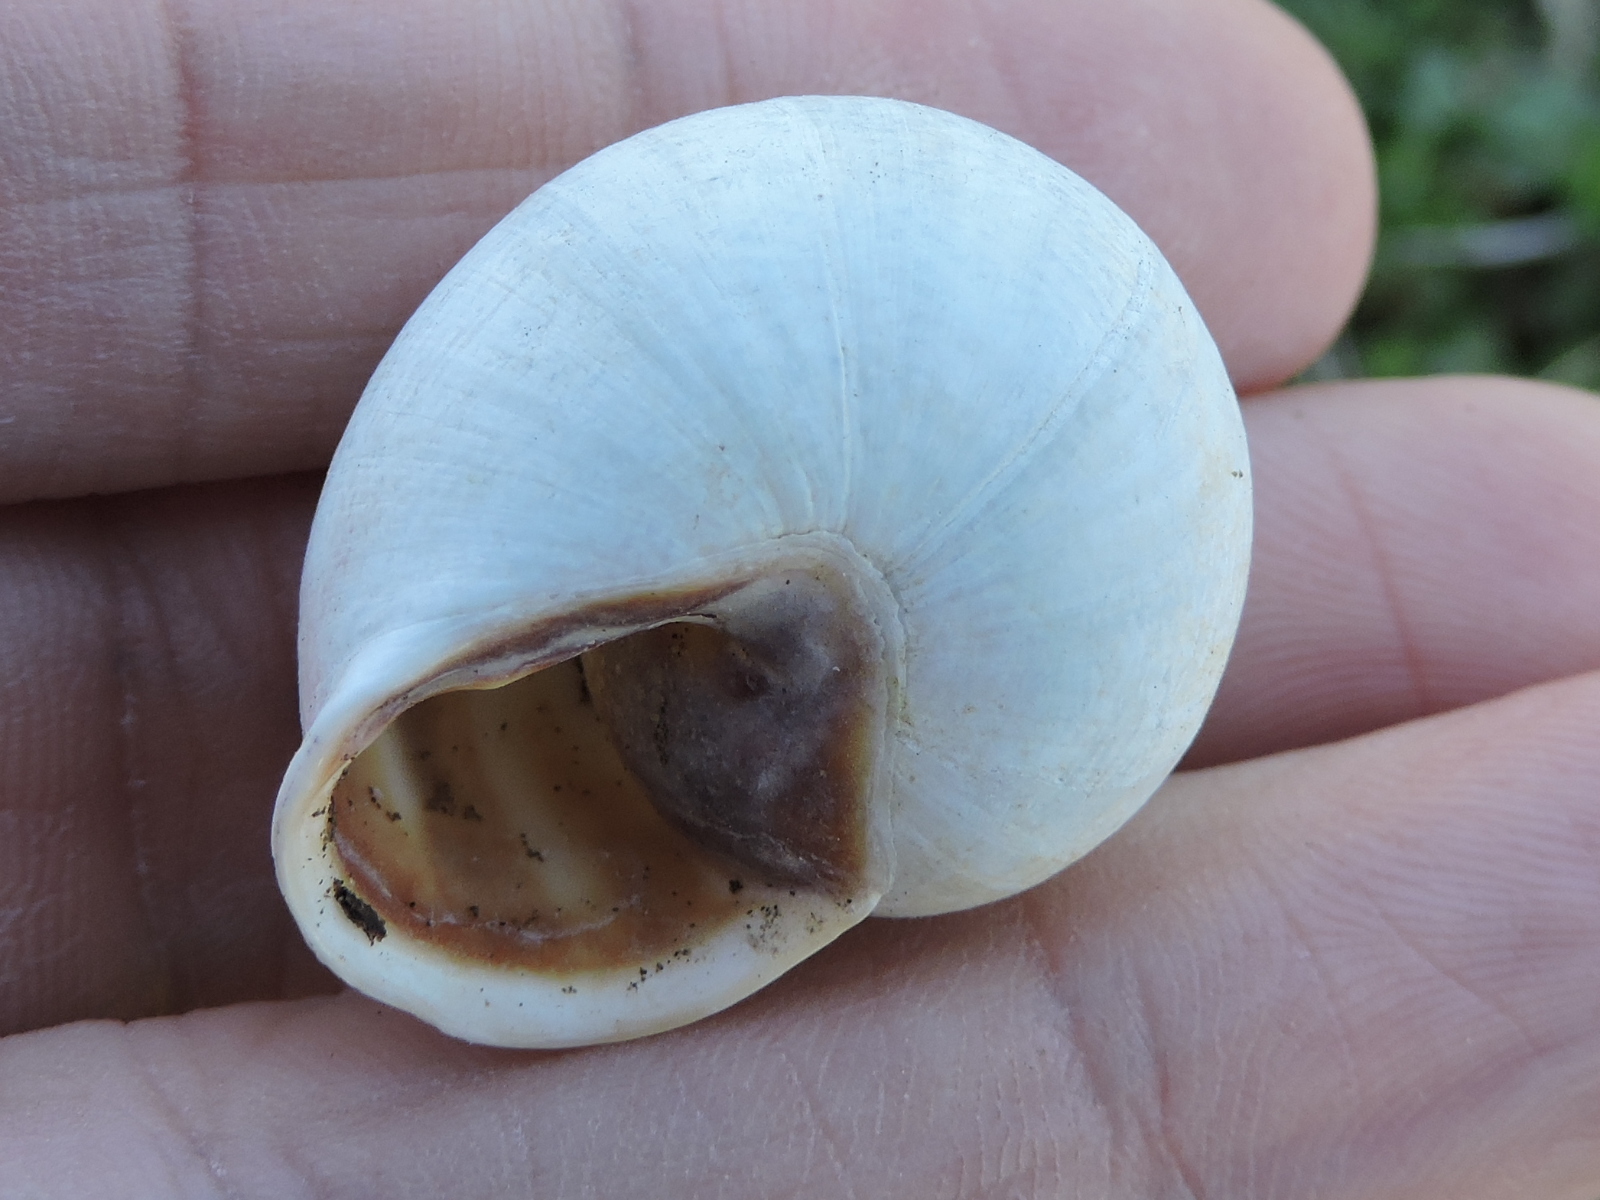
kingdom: Animalia
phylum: Mollusca
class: Gastropoda
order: Stylommatophora
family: Helicidae
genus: Otala
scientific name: Otala lactea
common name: Milk snail
